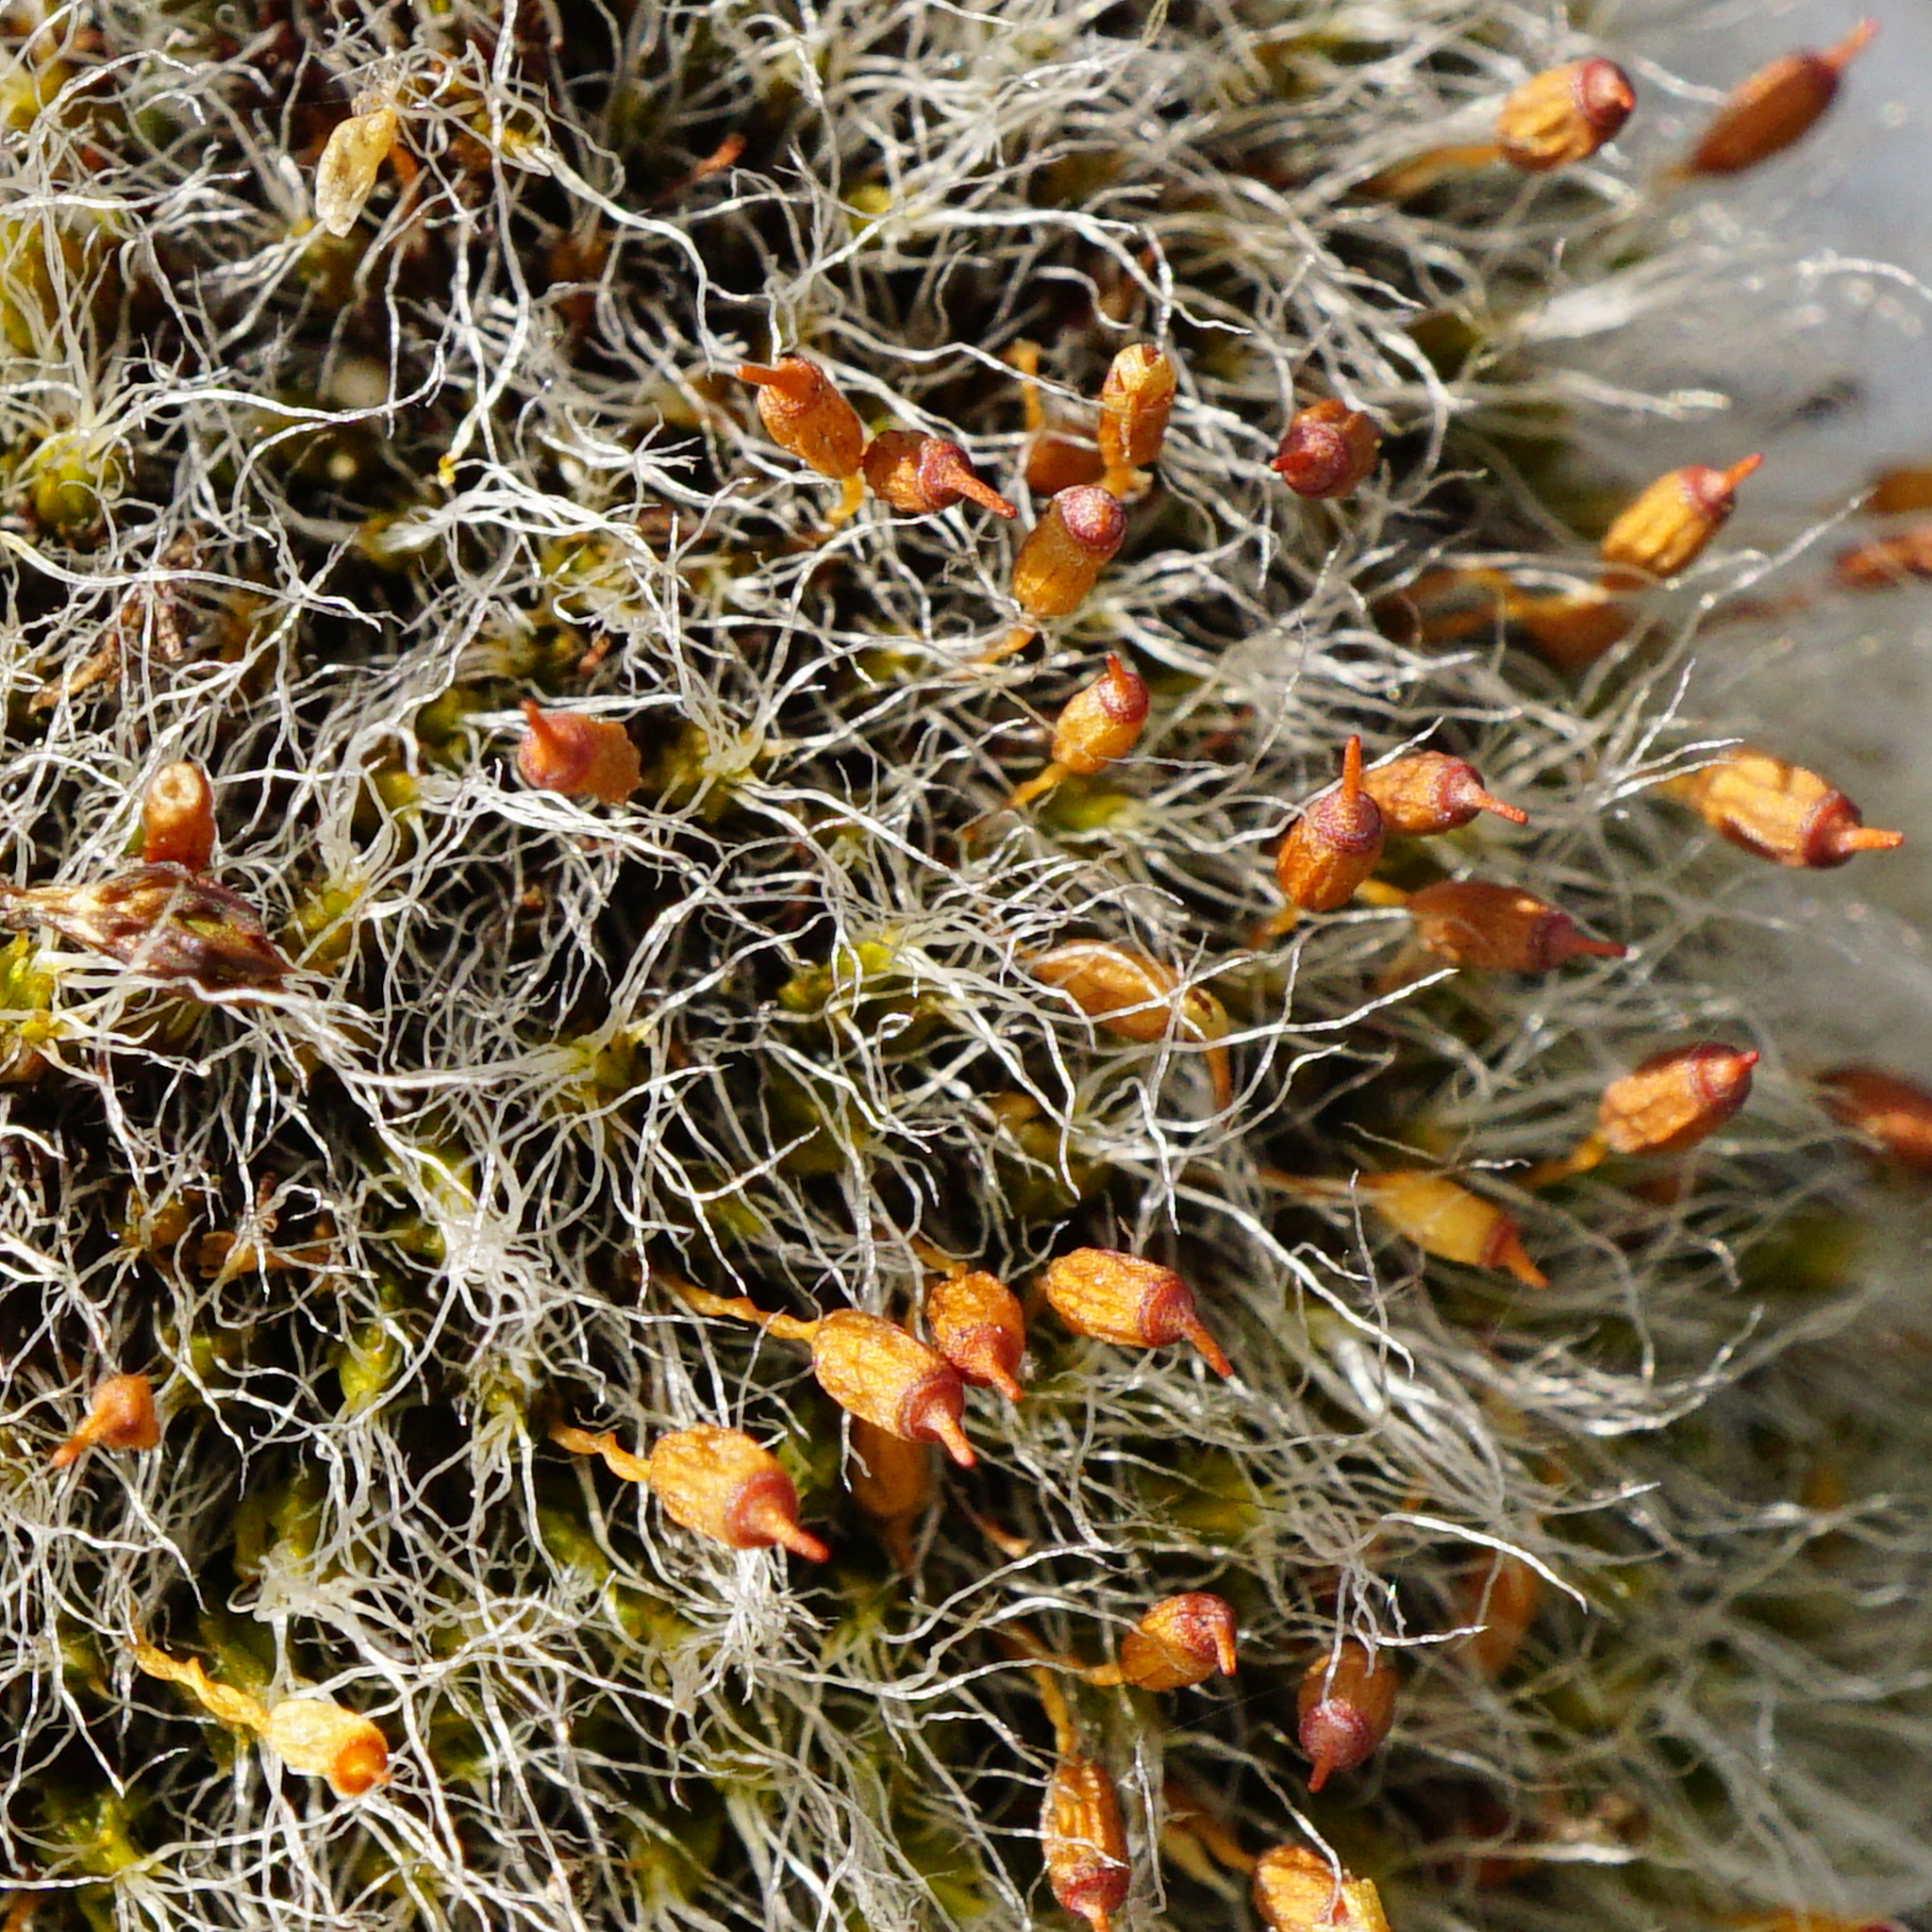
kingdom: Plantae
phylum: Bryophyta
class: Bryopsida
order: Grimmiales
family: Grimmiaceae
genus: Grimmia
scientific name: Grimmia pulvinata
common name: Grey-cushioned grimmia
